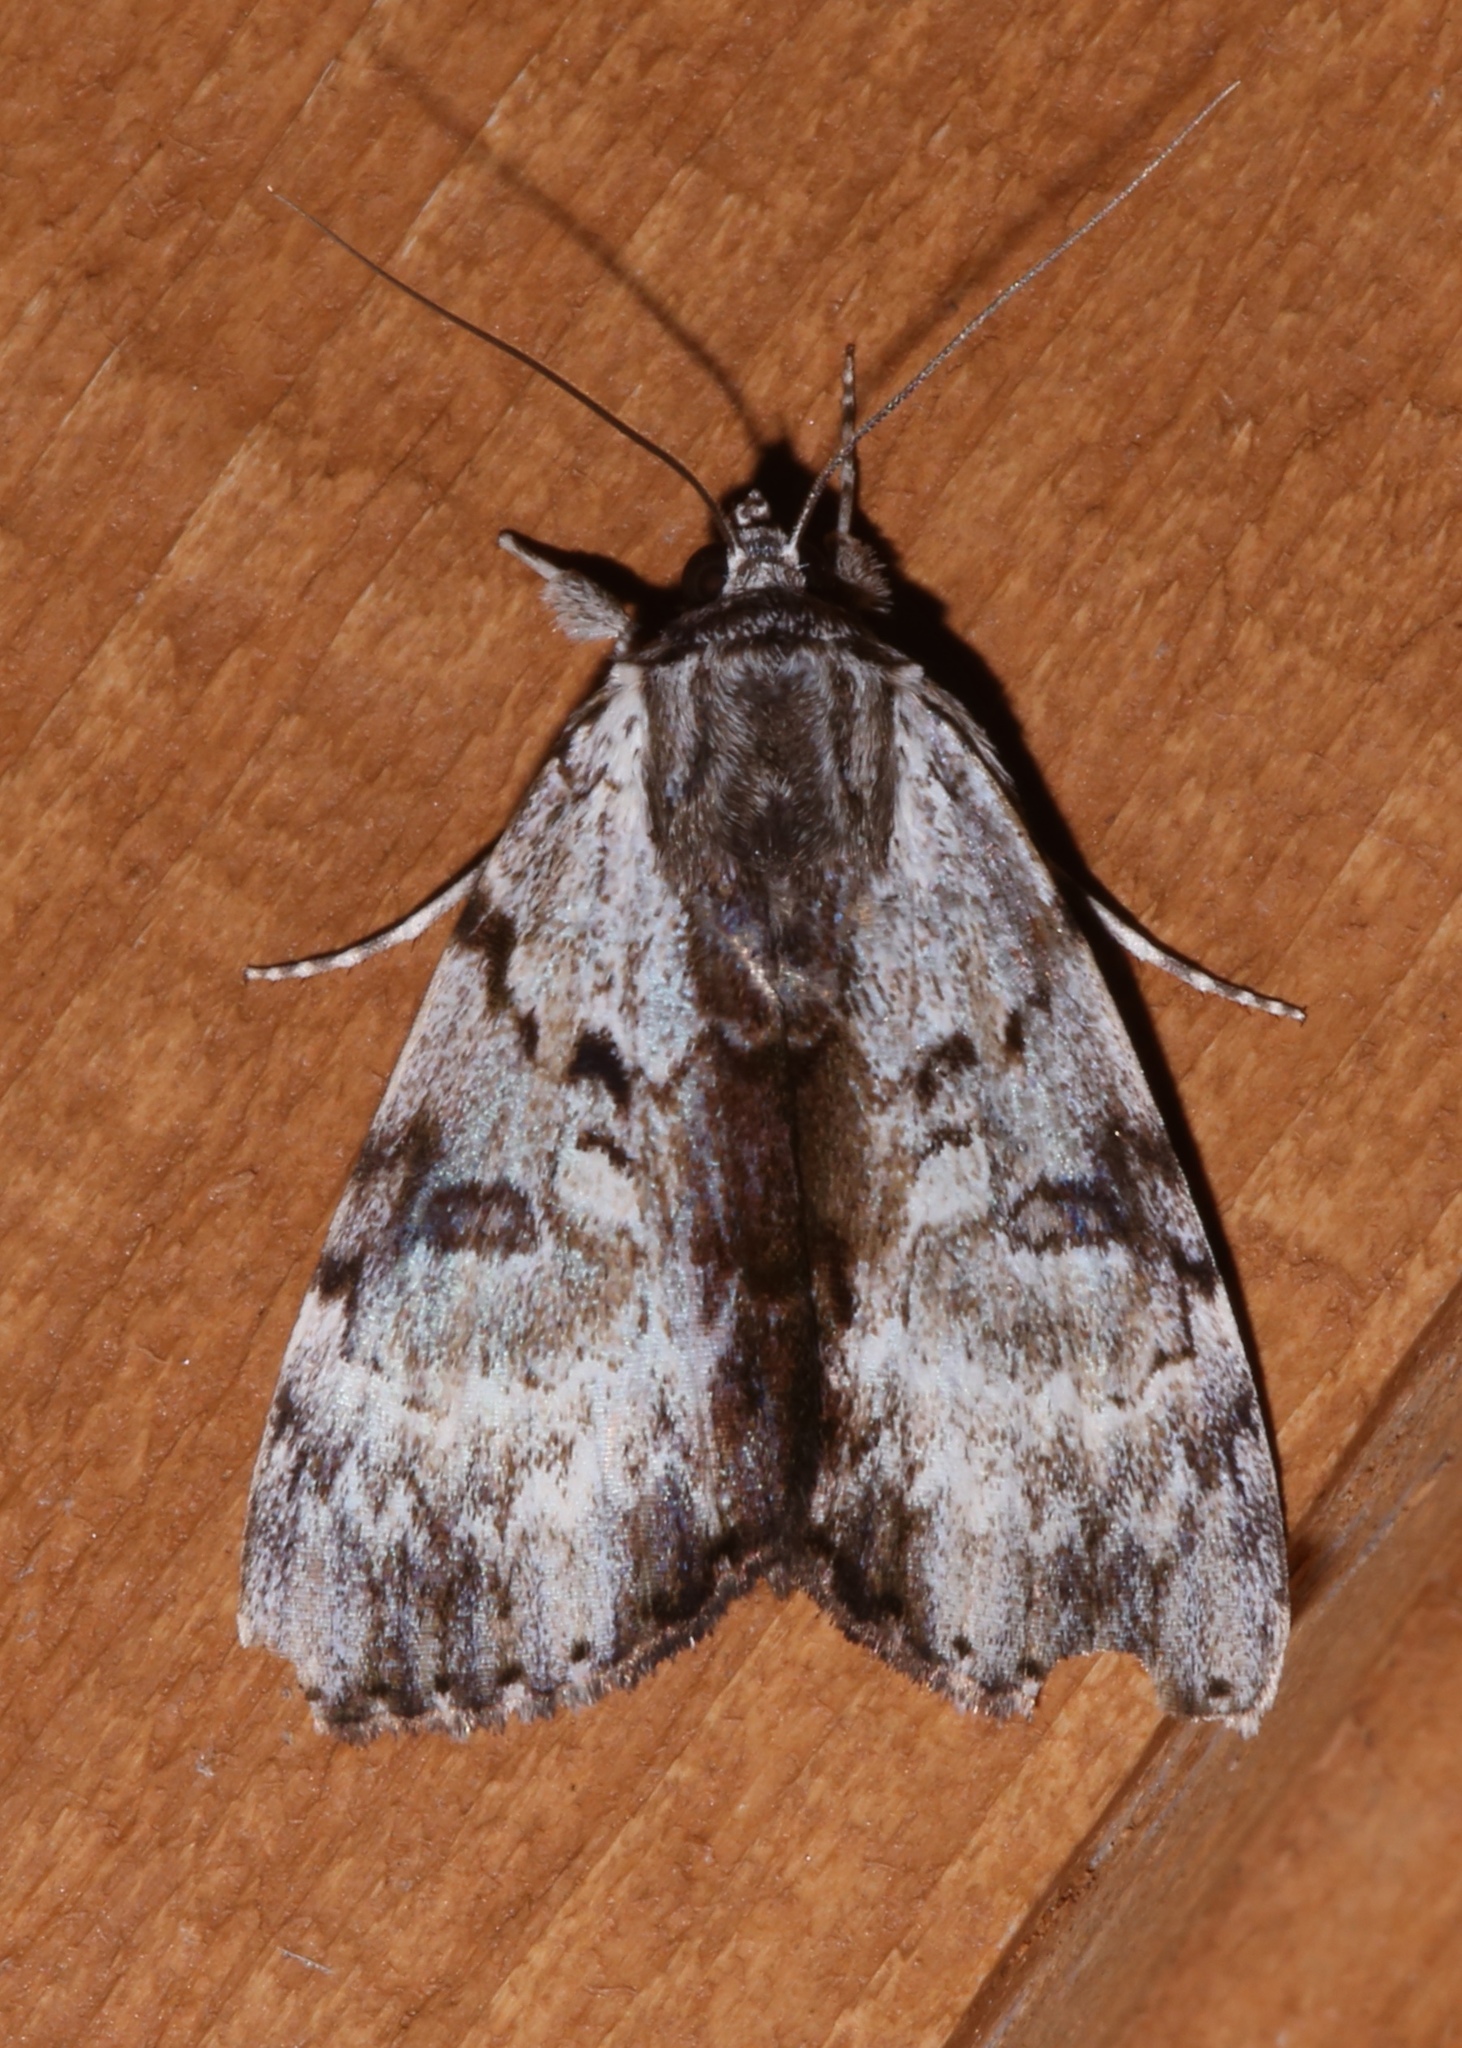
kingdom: Animalia
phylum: Arthropoda
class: Insecta
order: Lepidoptera
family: Erebidae
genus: Catocala
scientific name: Catocala andromedae
